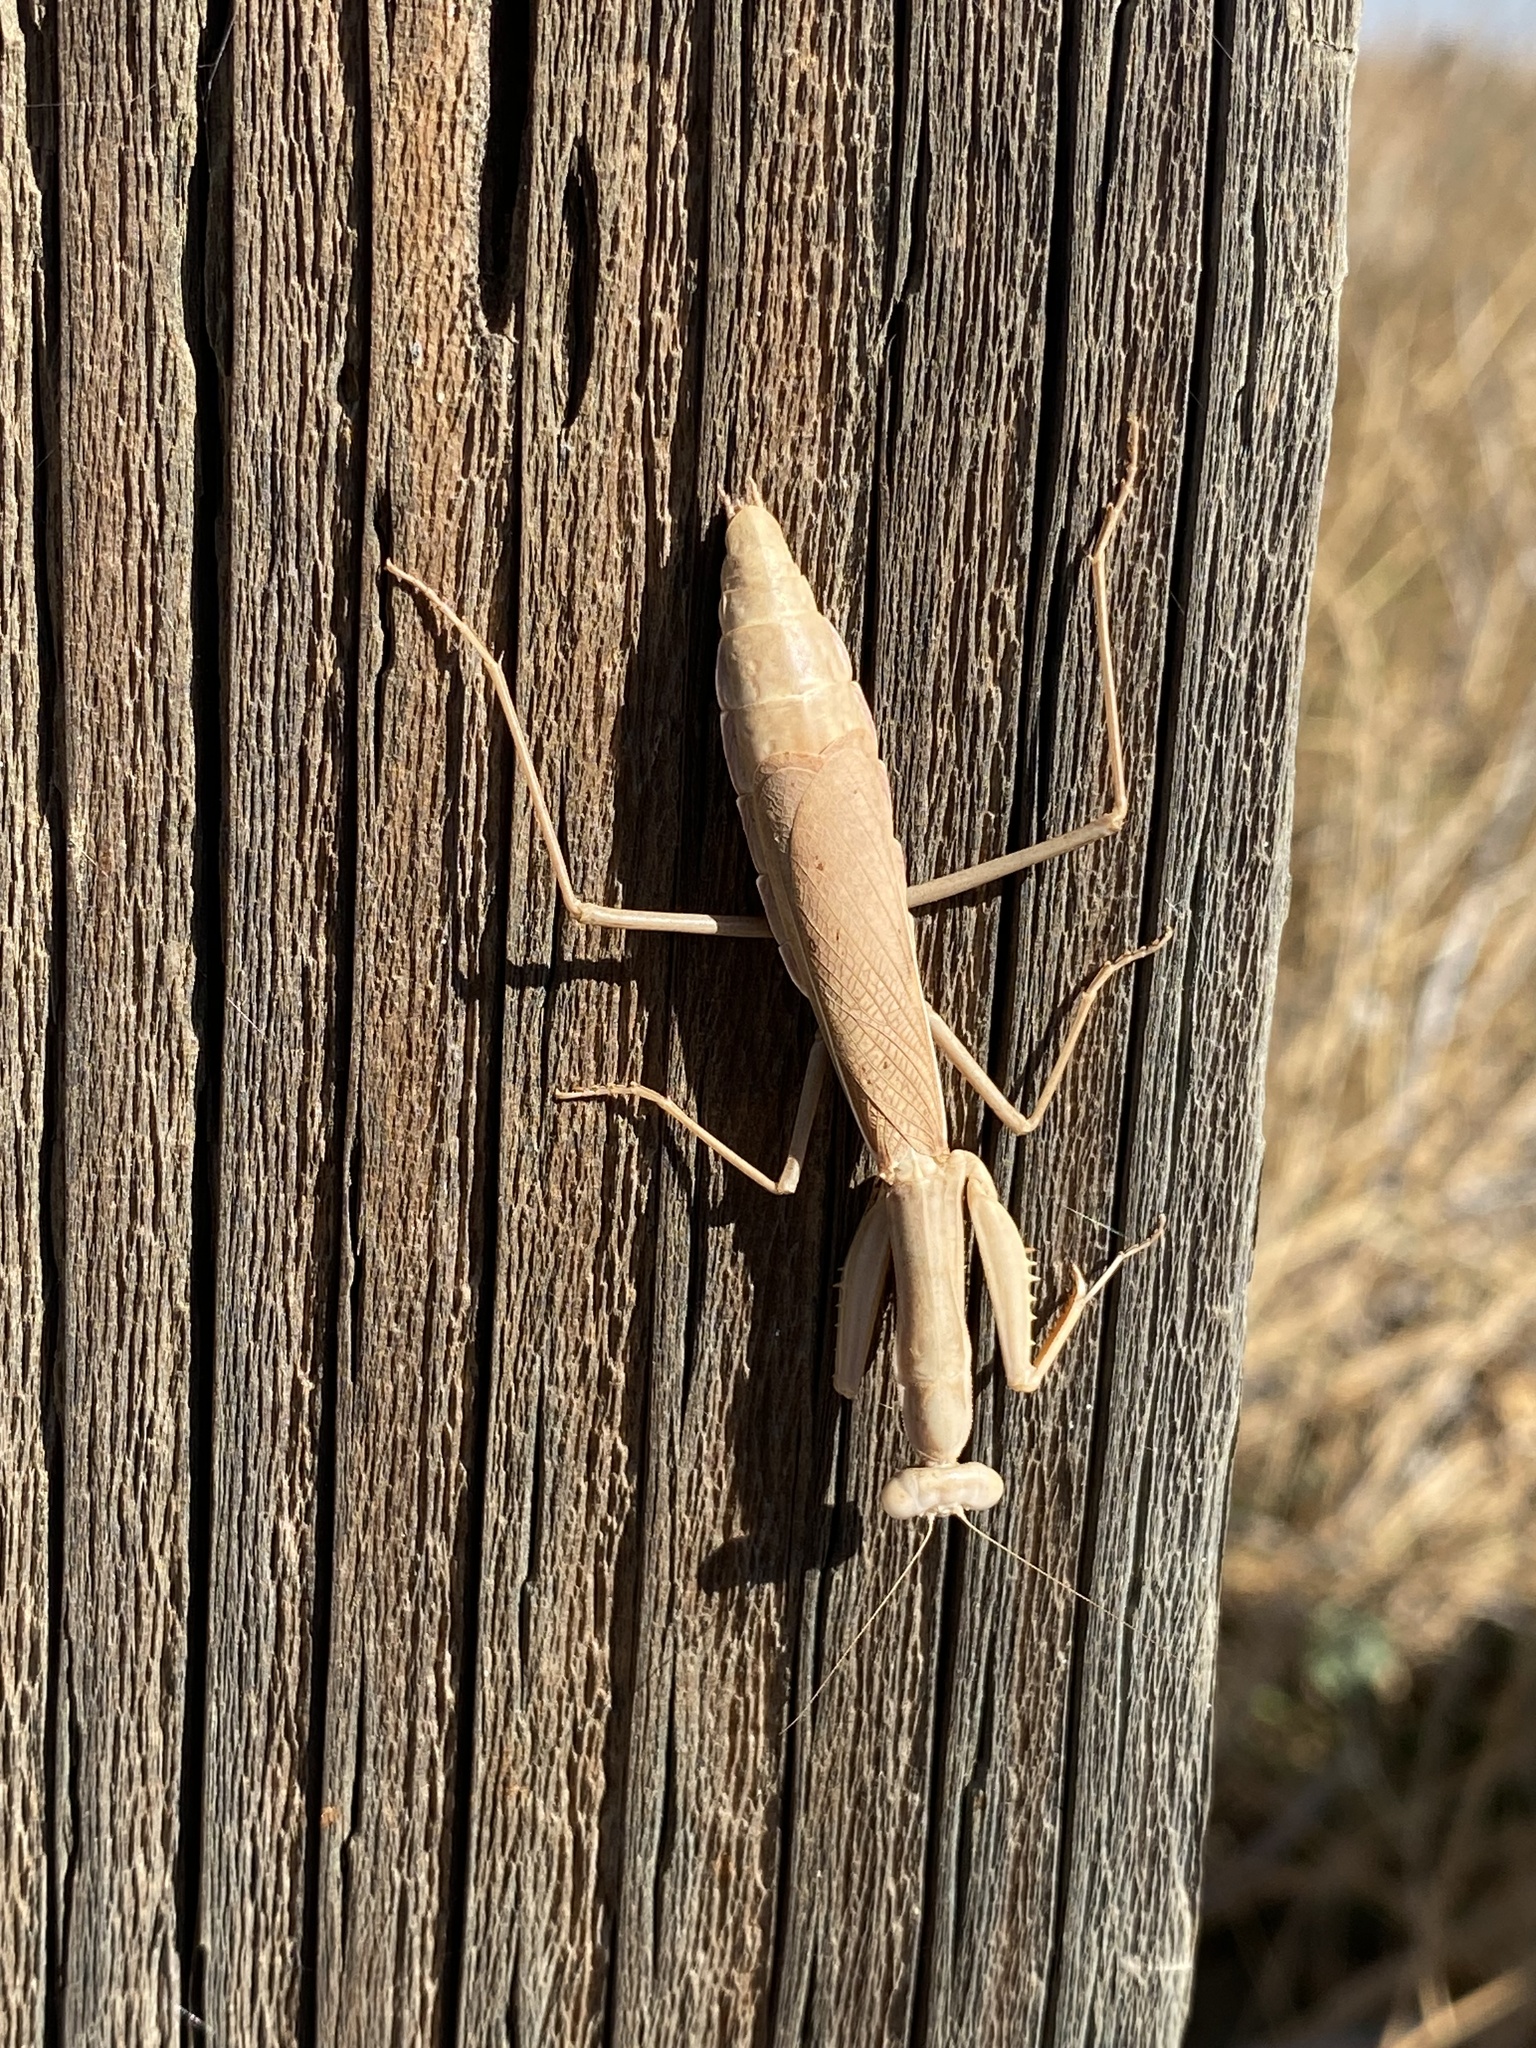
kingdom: Animalia
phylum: Arthropoda
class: Insecta
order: Mantodea
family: Eremiaphilidae
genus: Iris
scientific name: Iris oratoria
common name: Mediterranean mantis
